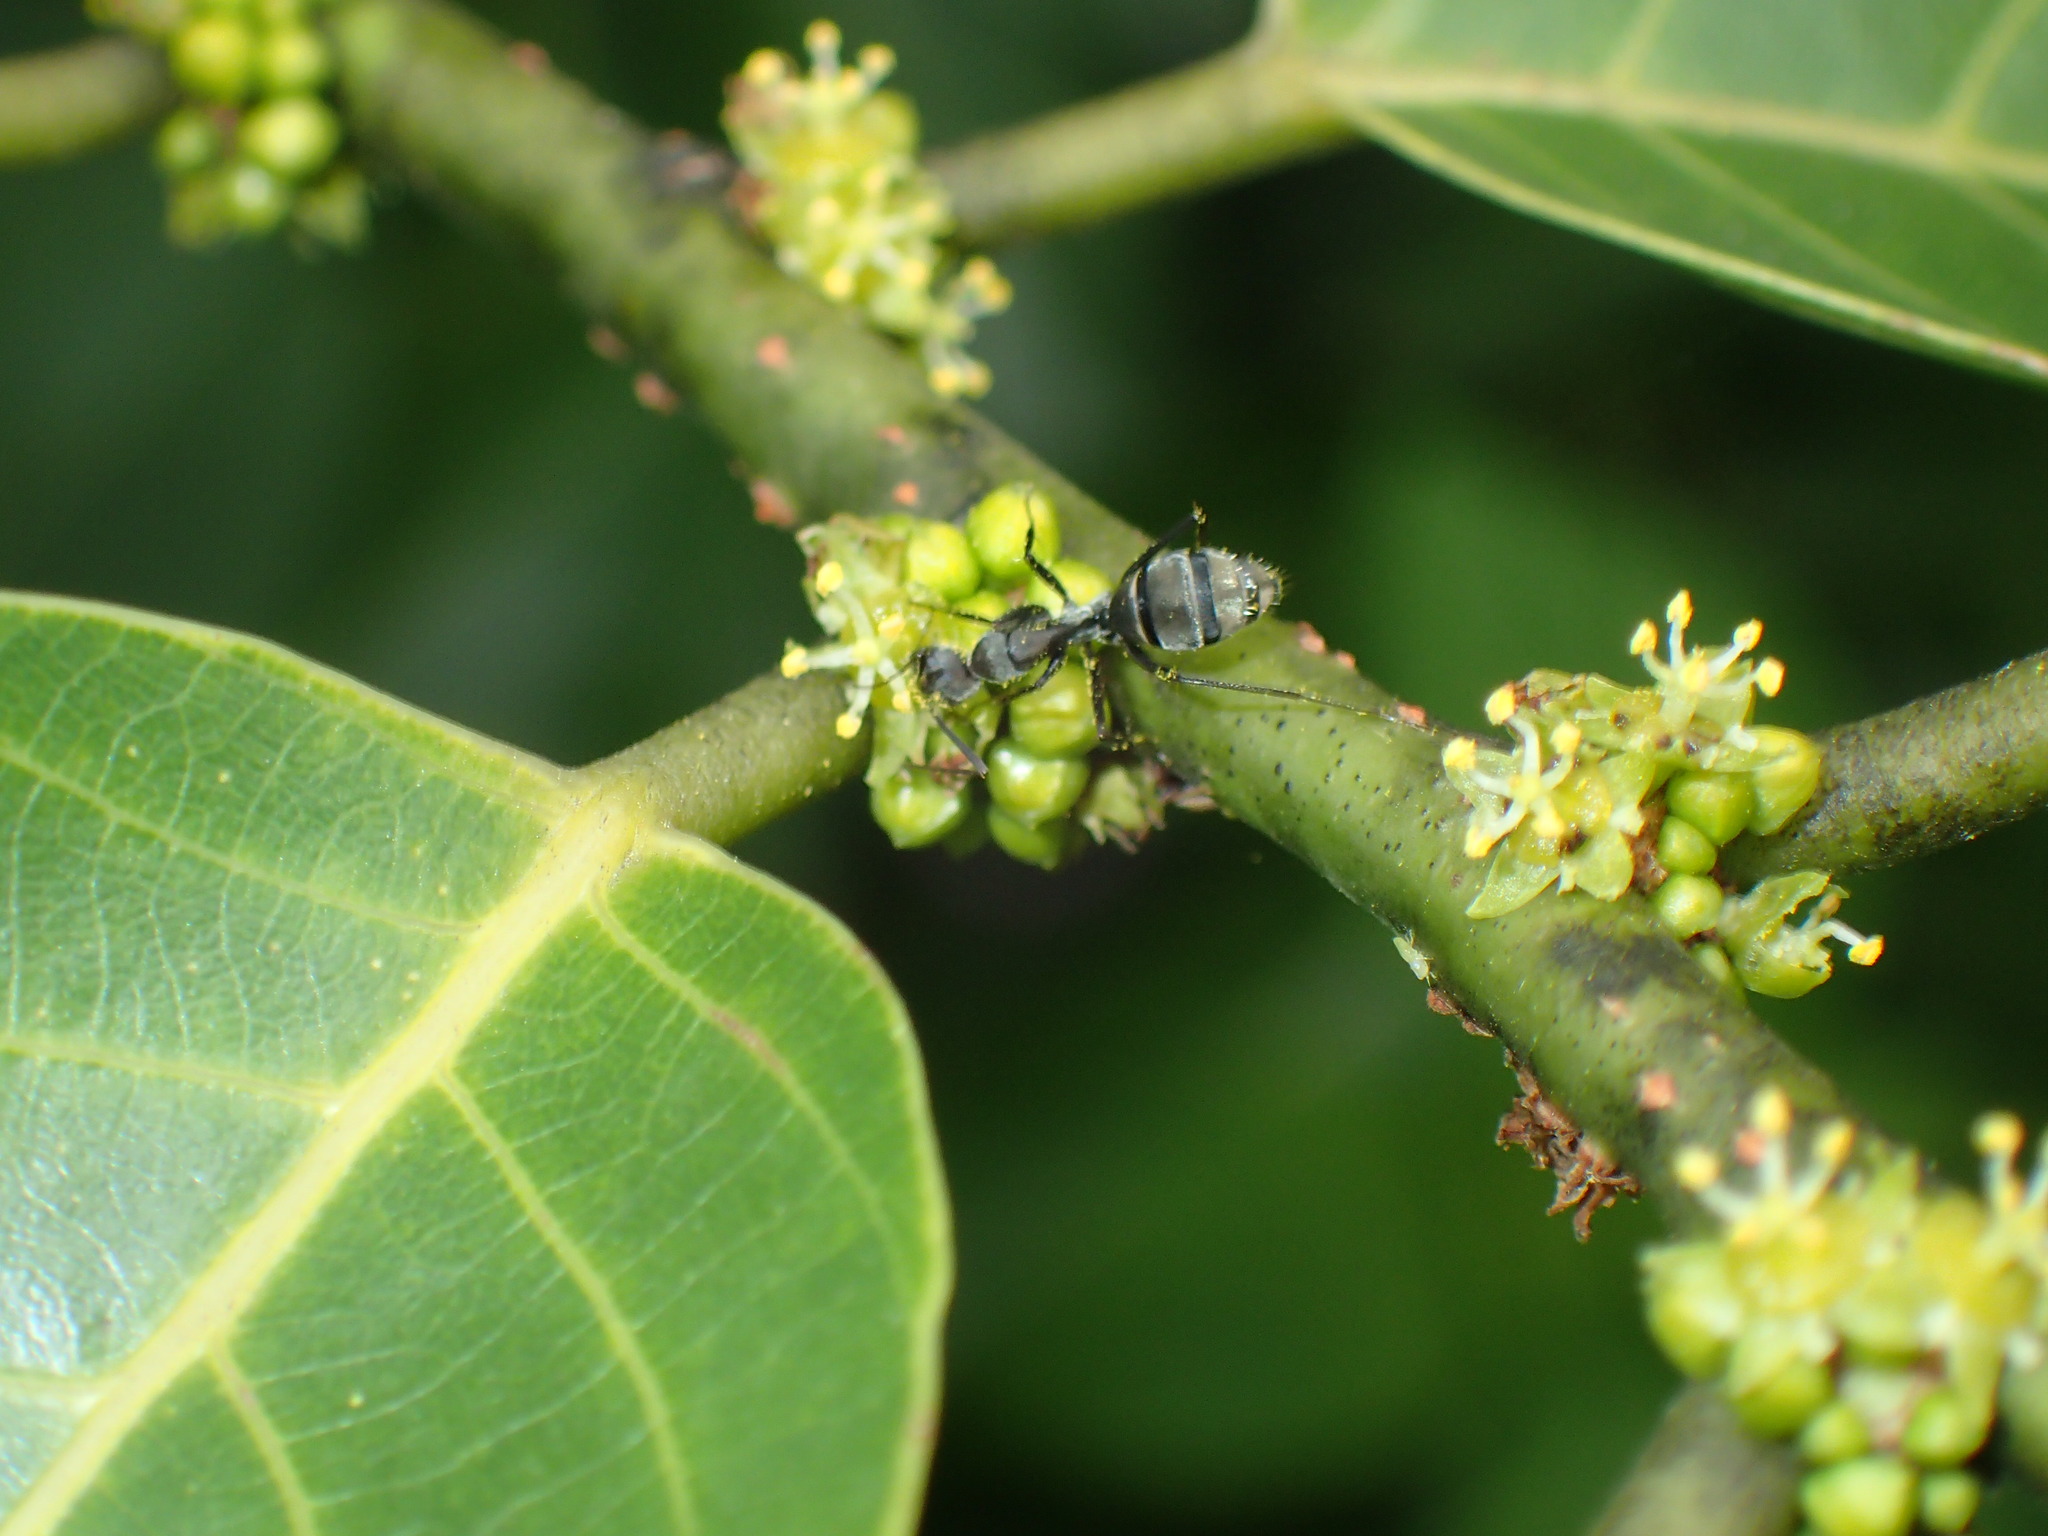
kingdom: Animalia
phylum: Arthropoda
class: Insecta
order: Hymenoptera
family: Formicidae
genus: Camponotus
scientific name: Camponotus cinctellus
